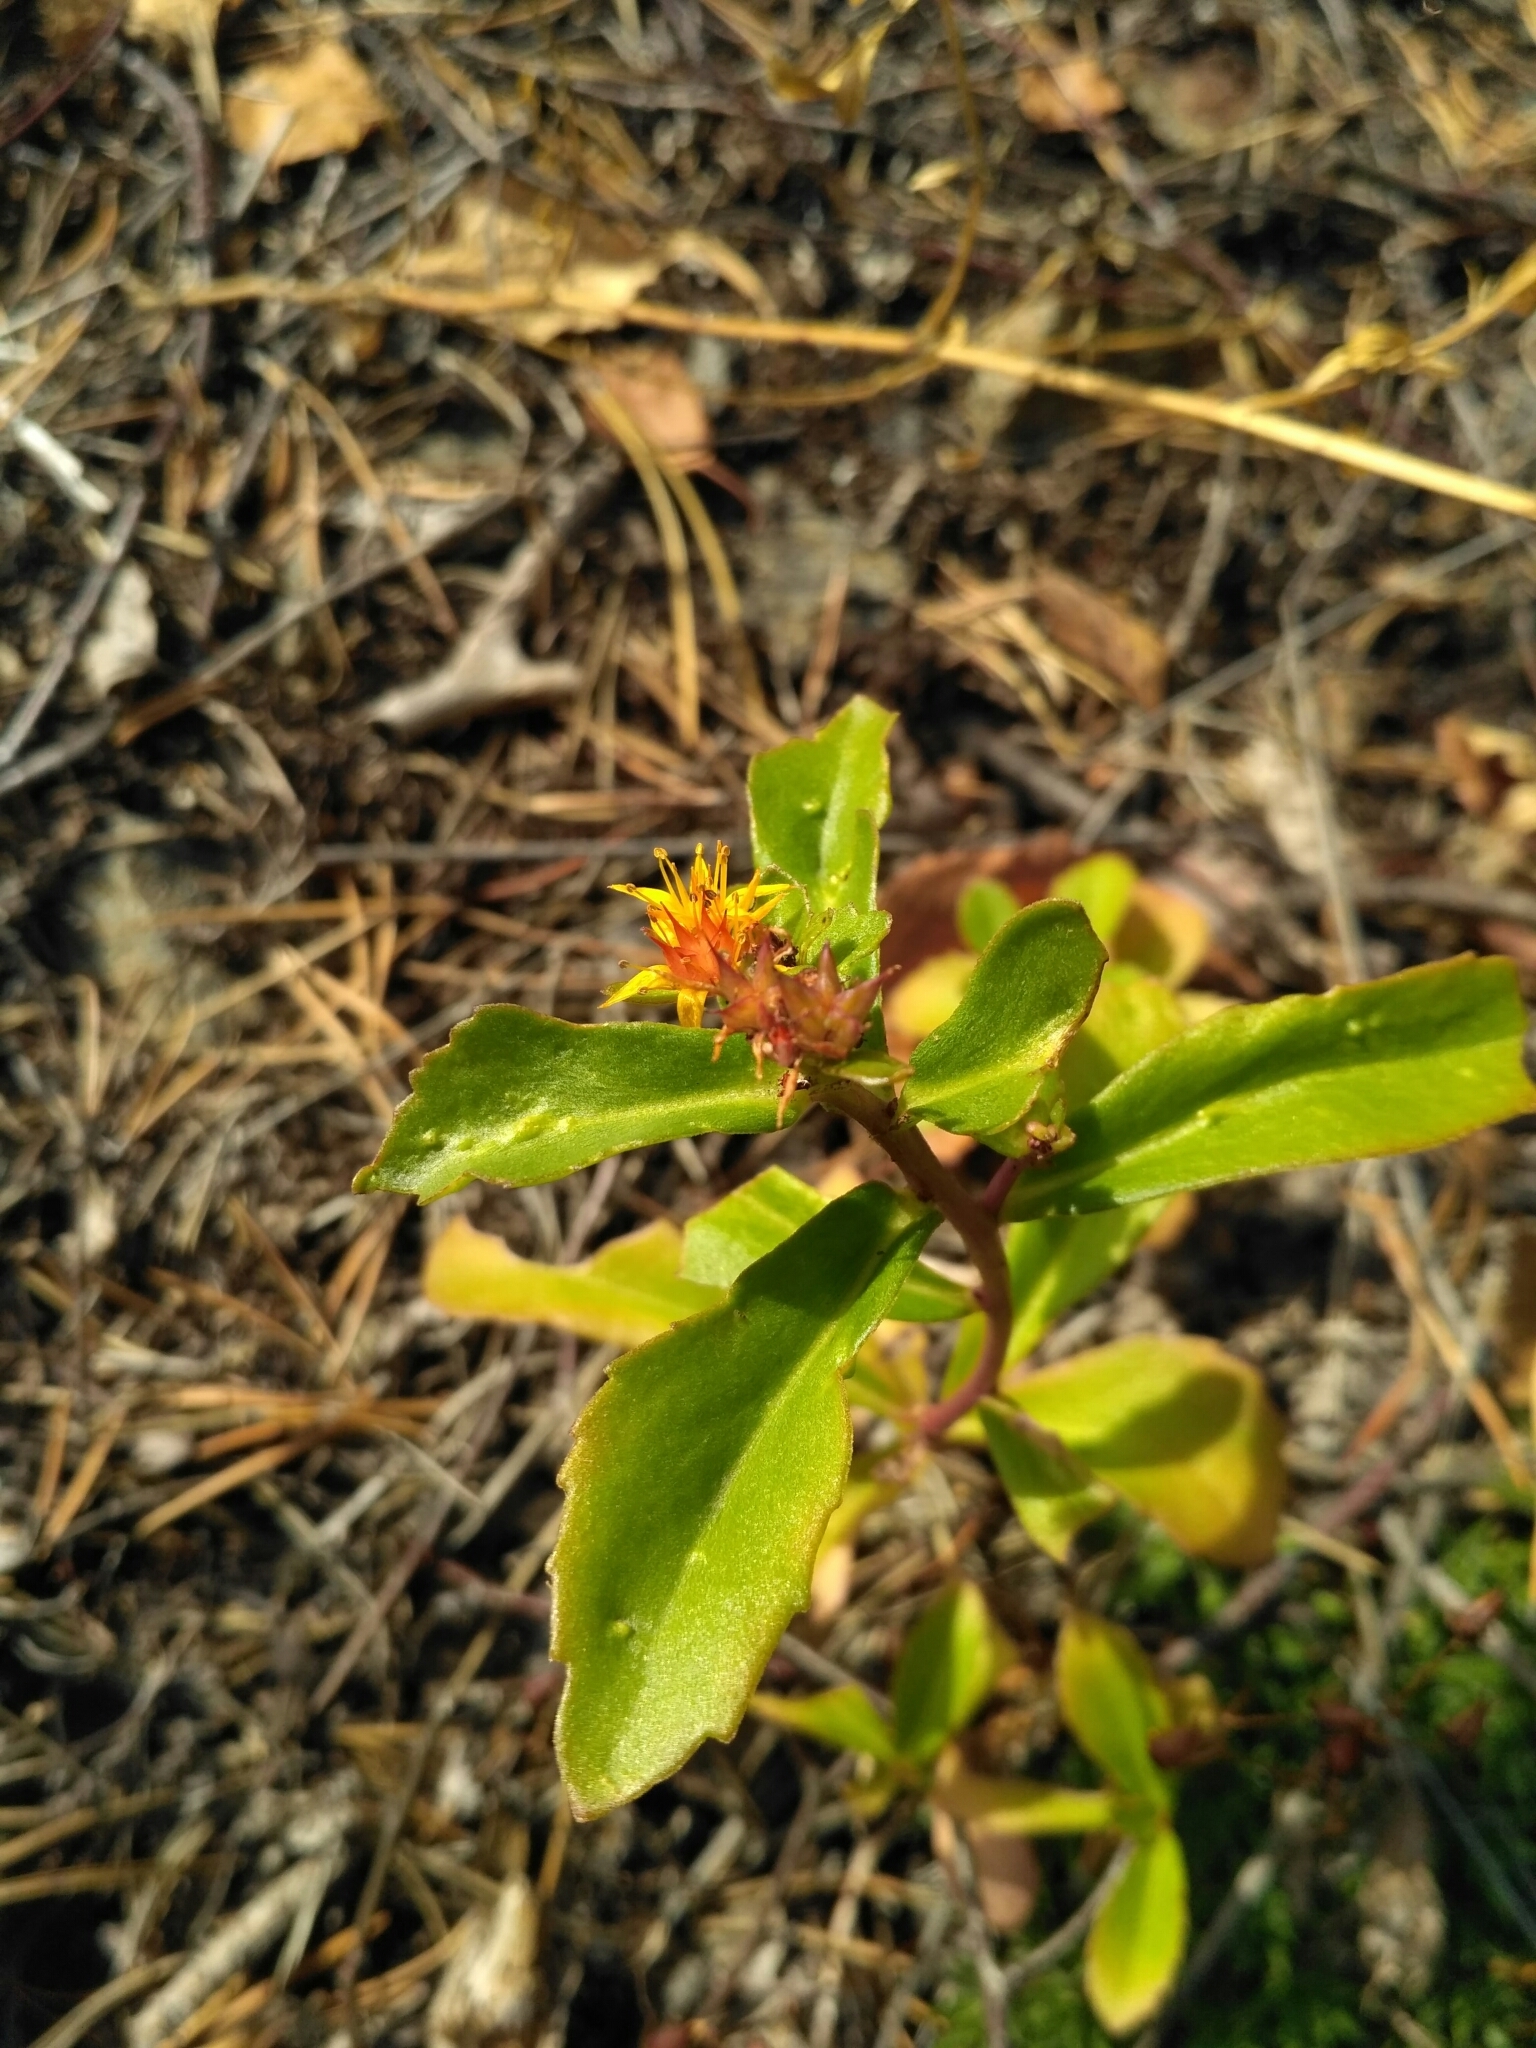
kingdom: Plantae
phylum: Tracheophyta
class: Magnoliopsida
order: Saxifragales
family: Crassulaceae
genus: Phedimus
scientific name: Phedimus aizoon
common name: Orpin aizoon
